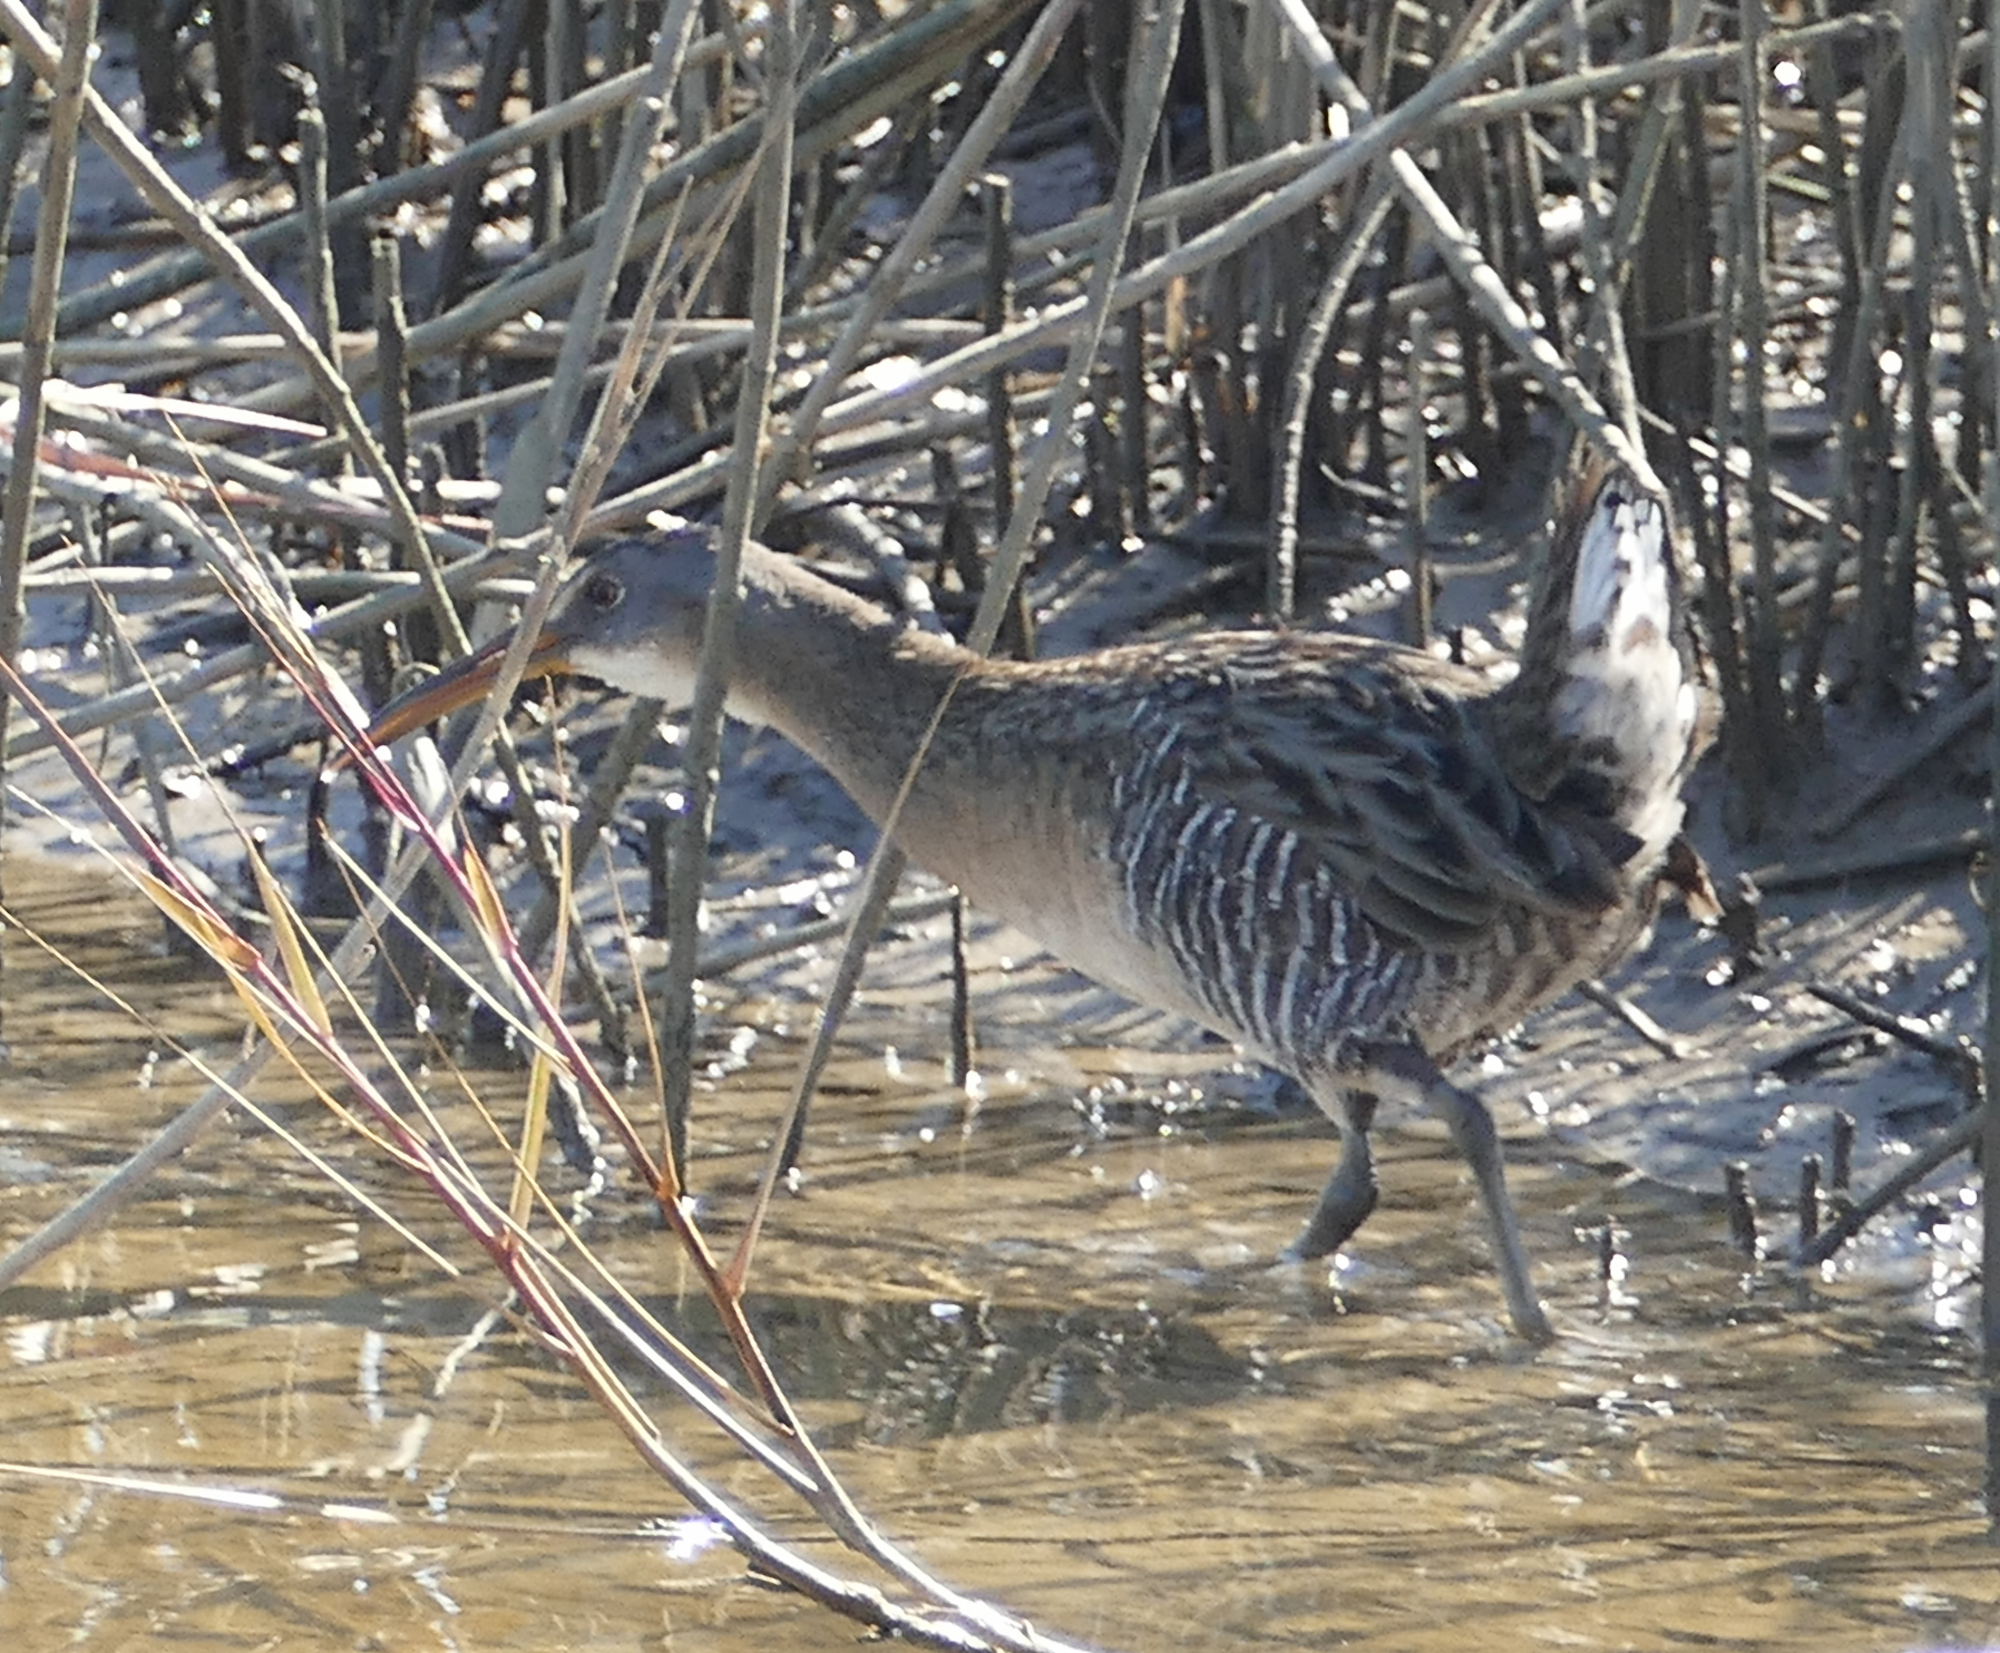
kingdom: Animalia
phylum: Chordata
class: Aves
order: Gruiformes
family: Rallidae
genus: Rallus
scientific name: Rallus crepitans
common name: Clapper rail
